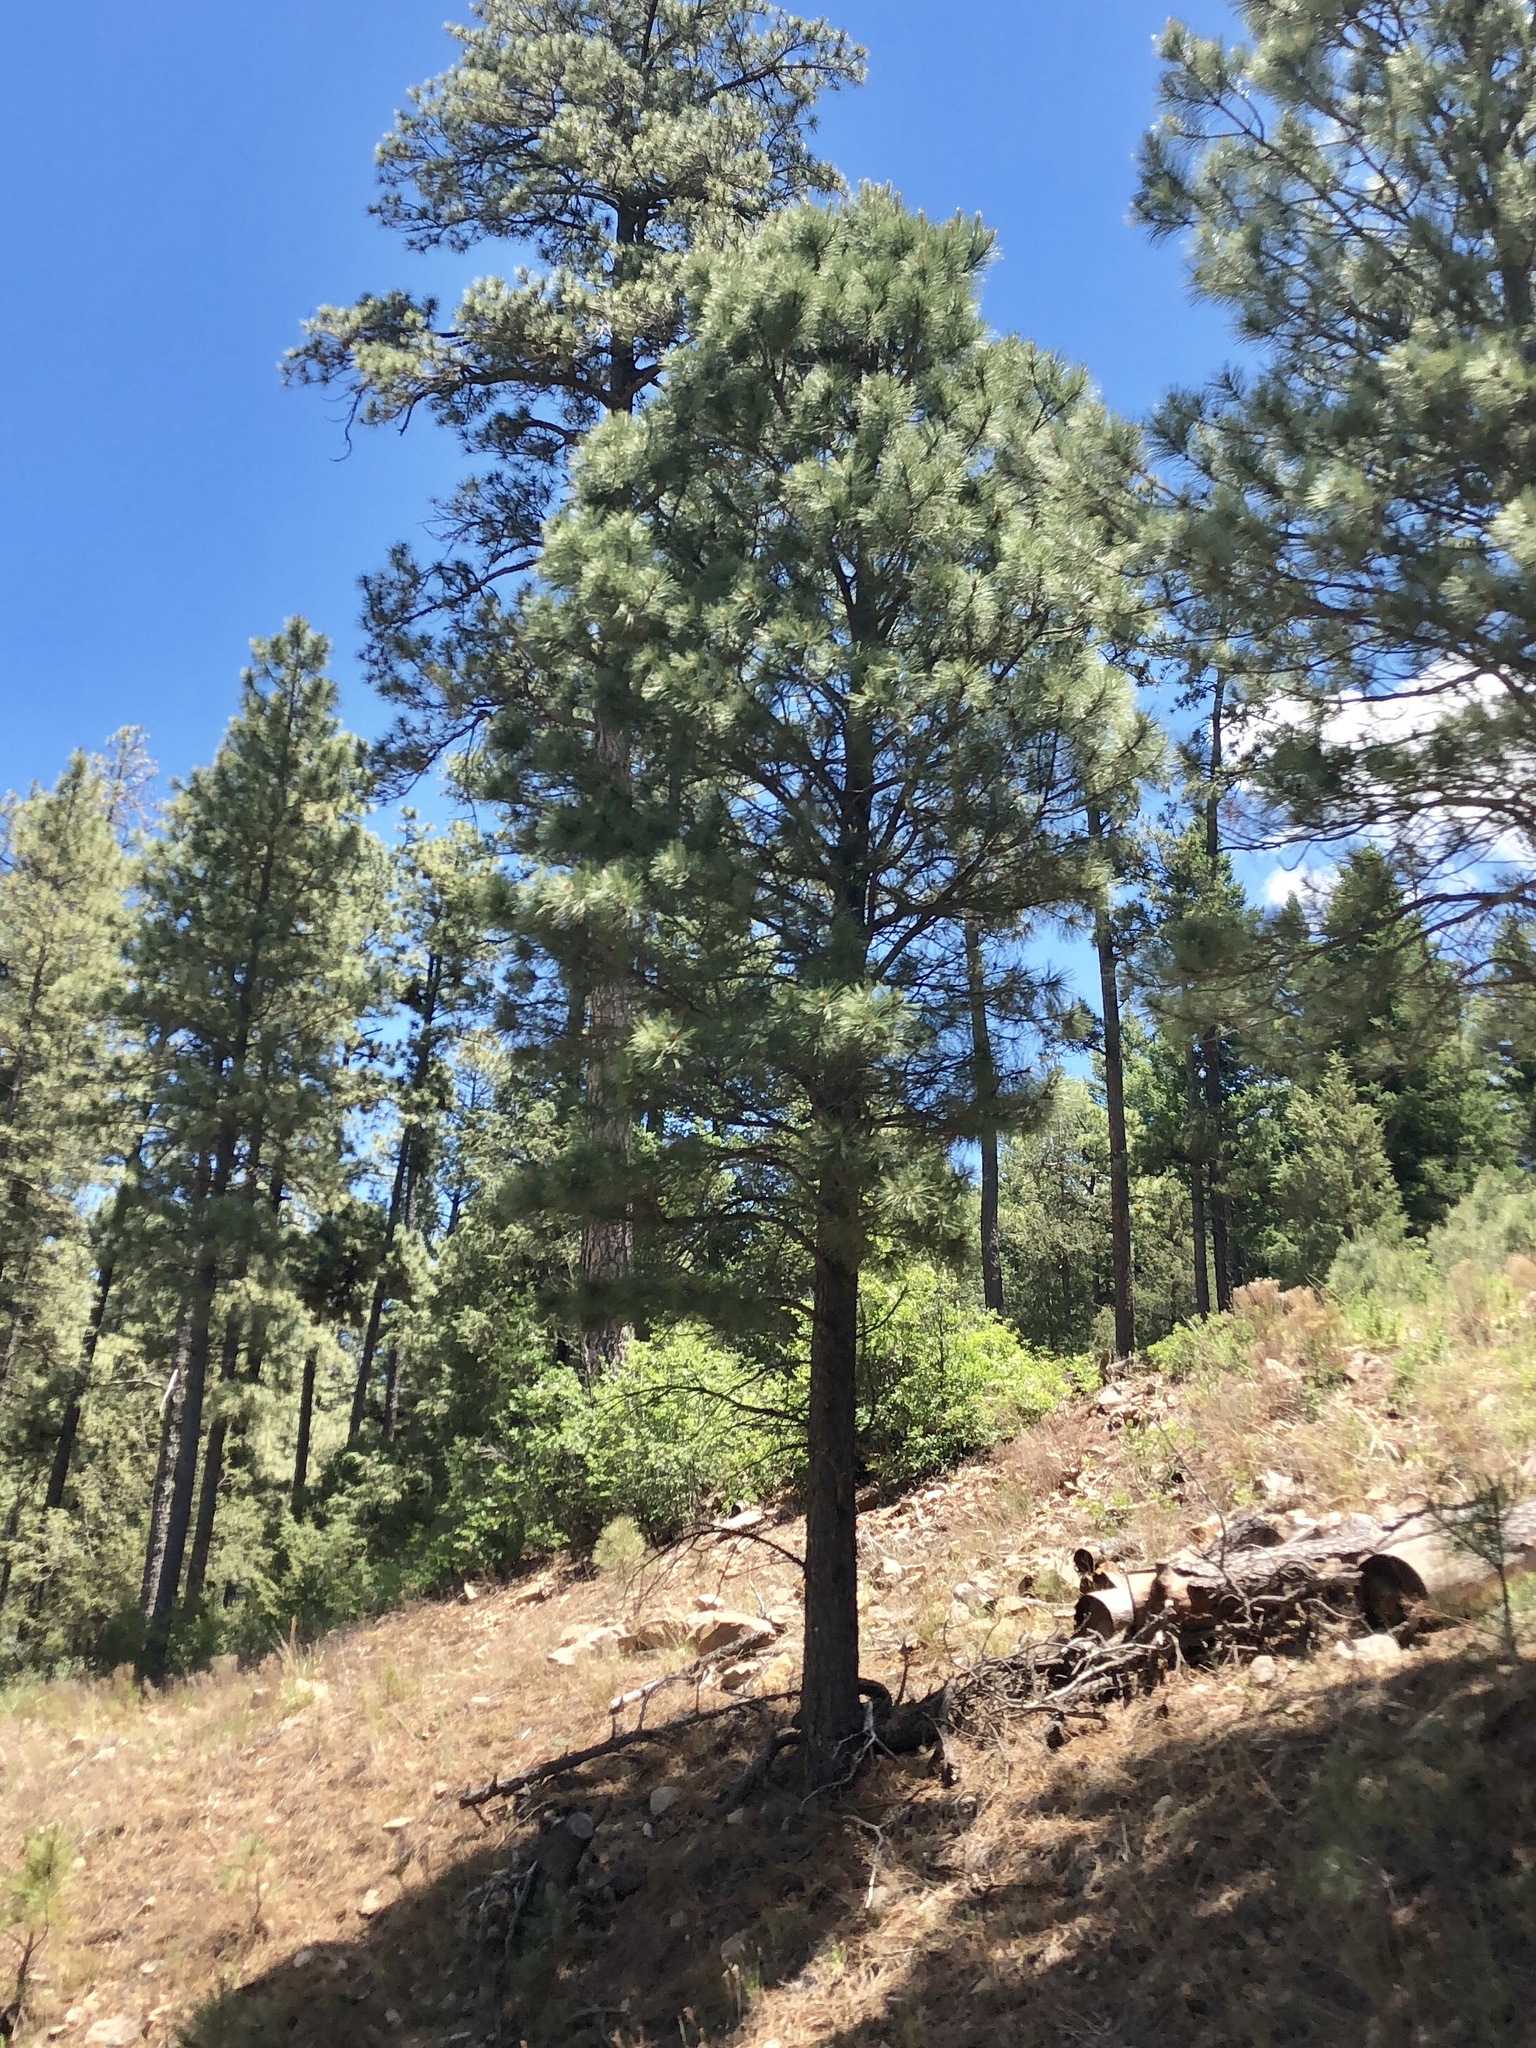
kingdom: Plantae
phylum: Tracheophyta
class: Pinopsida
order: Pinales
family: Pinaceae
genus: Pinus
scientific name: Pinus ponderosa
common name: Western yellow-pine
